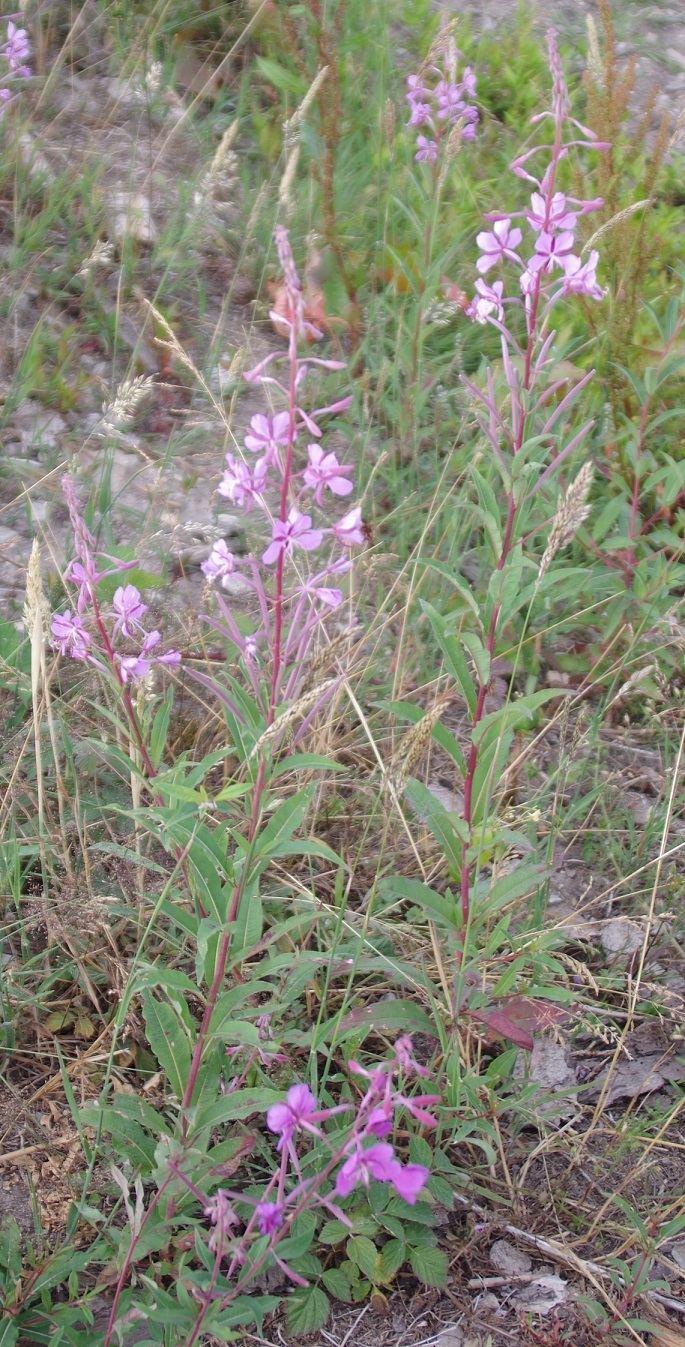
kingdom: Plantae
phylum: Tracheophyta
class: Magnoliopsida
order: Myrtales
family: Onagraceae
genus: Chamaenerion
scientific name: Chamaenerion angustifolium
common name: Fireweed
